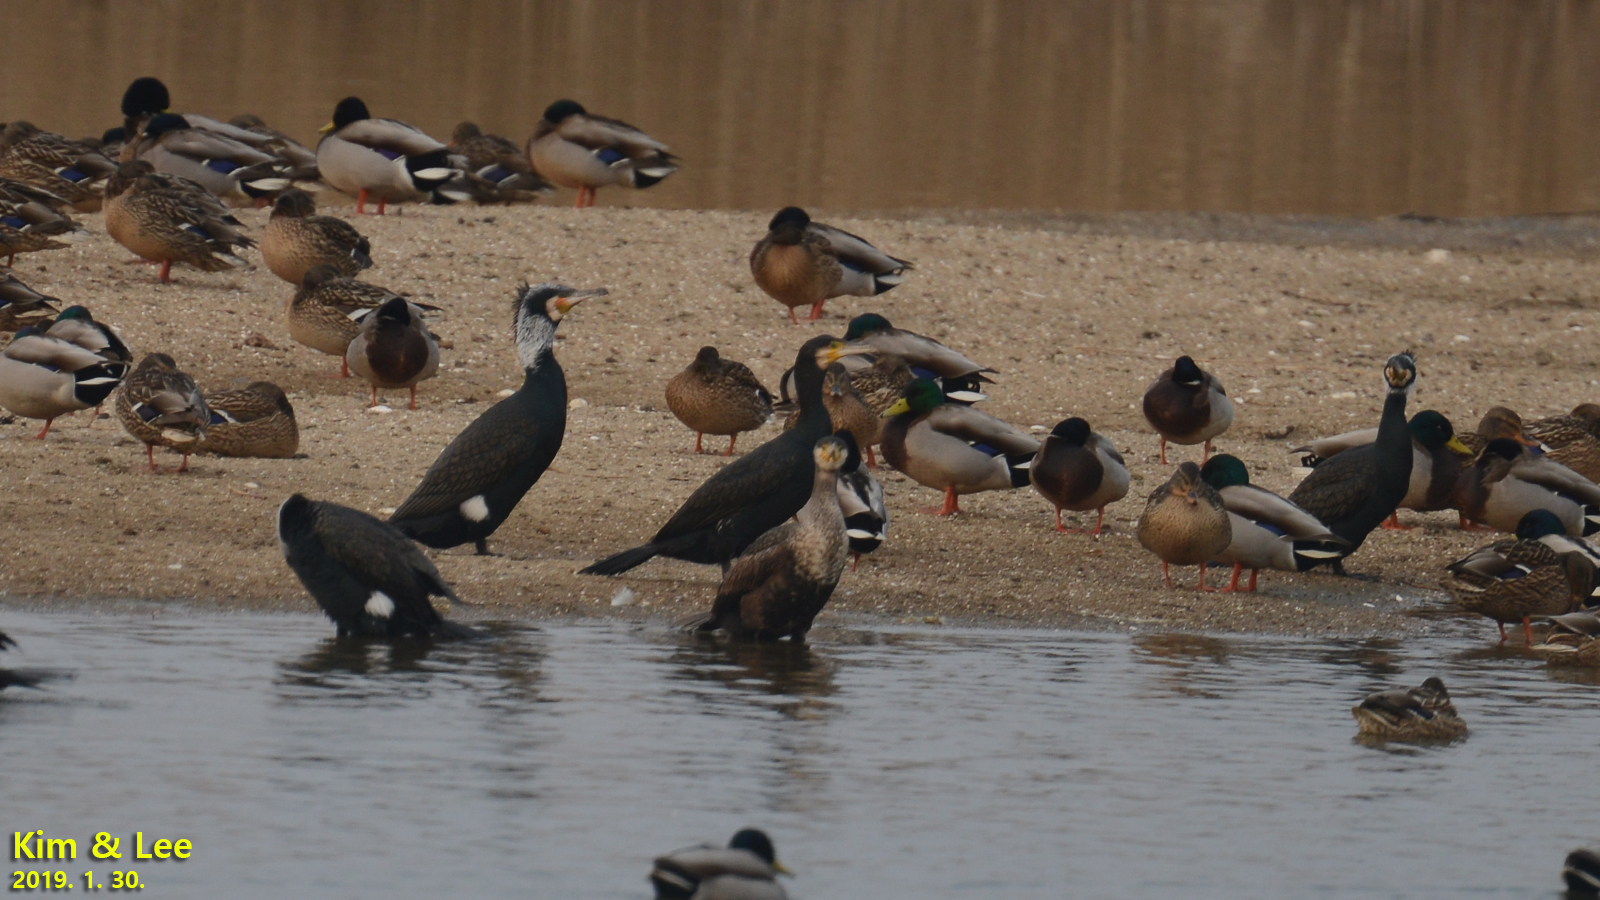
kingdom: Animalia
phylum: Chordata
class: Aves
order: Suliformes
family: Phalacrocoracidae
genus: Phalacrocorax
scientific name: Phalacrocorax carbo
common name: Great cormorant
